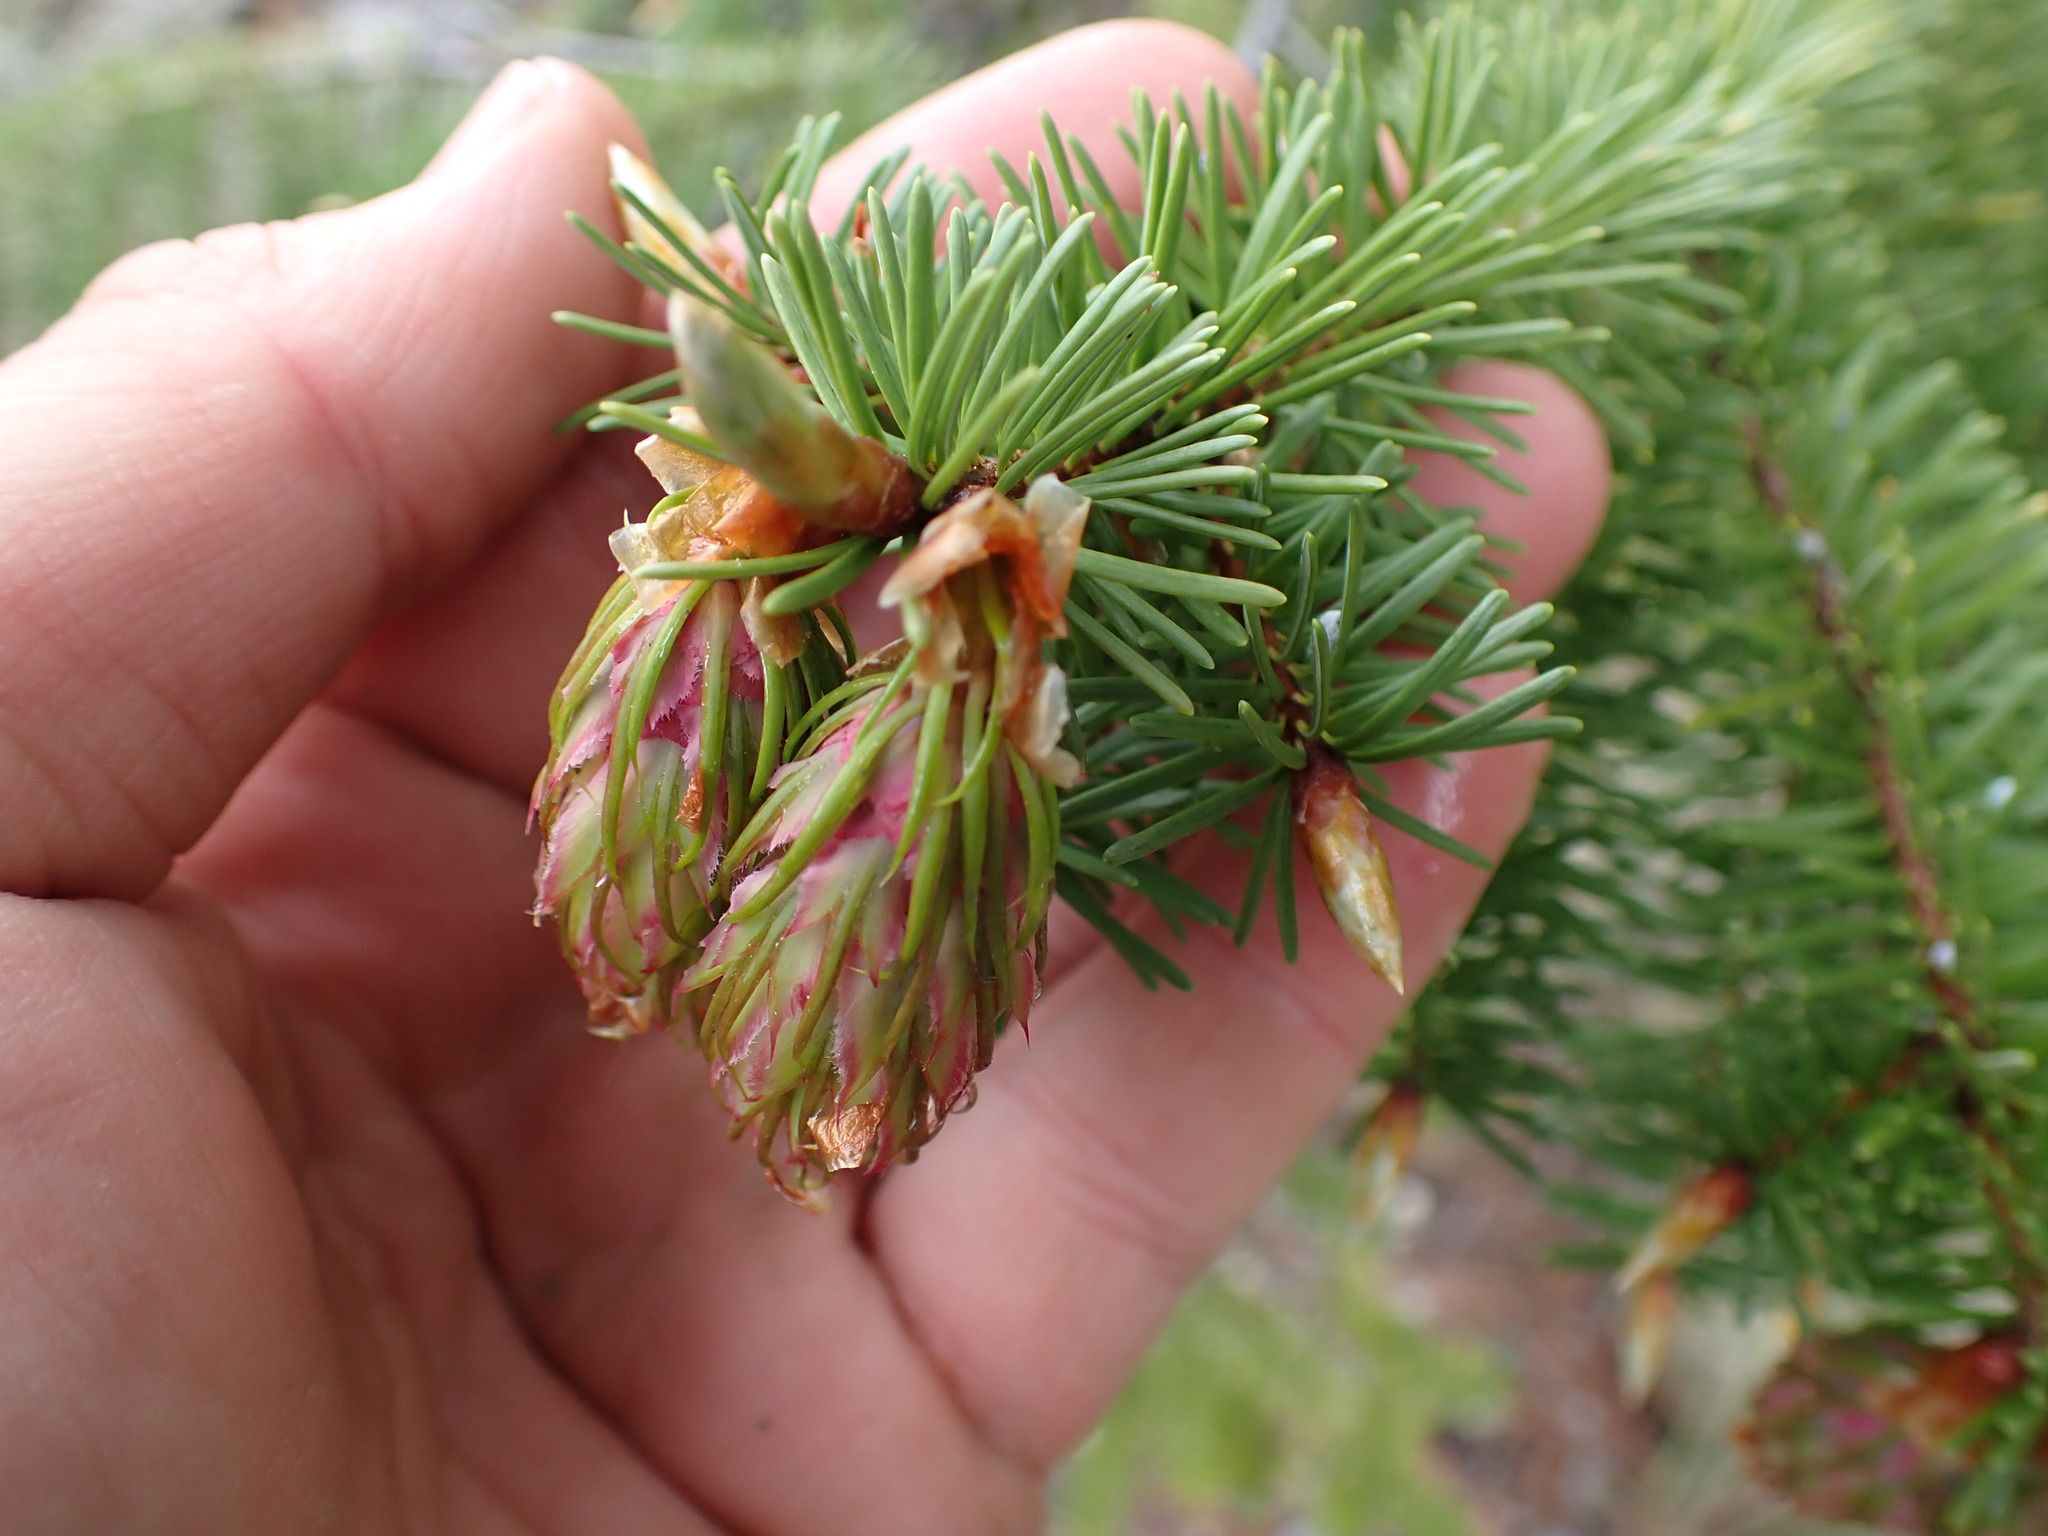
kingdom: Plantae
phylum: Tracheophyta
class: Pinopsida
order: Pinales
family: Pinaceae
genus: Pseudotsuga
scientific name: Pseudotsuga menziesii
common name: Douglas fir
